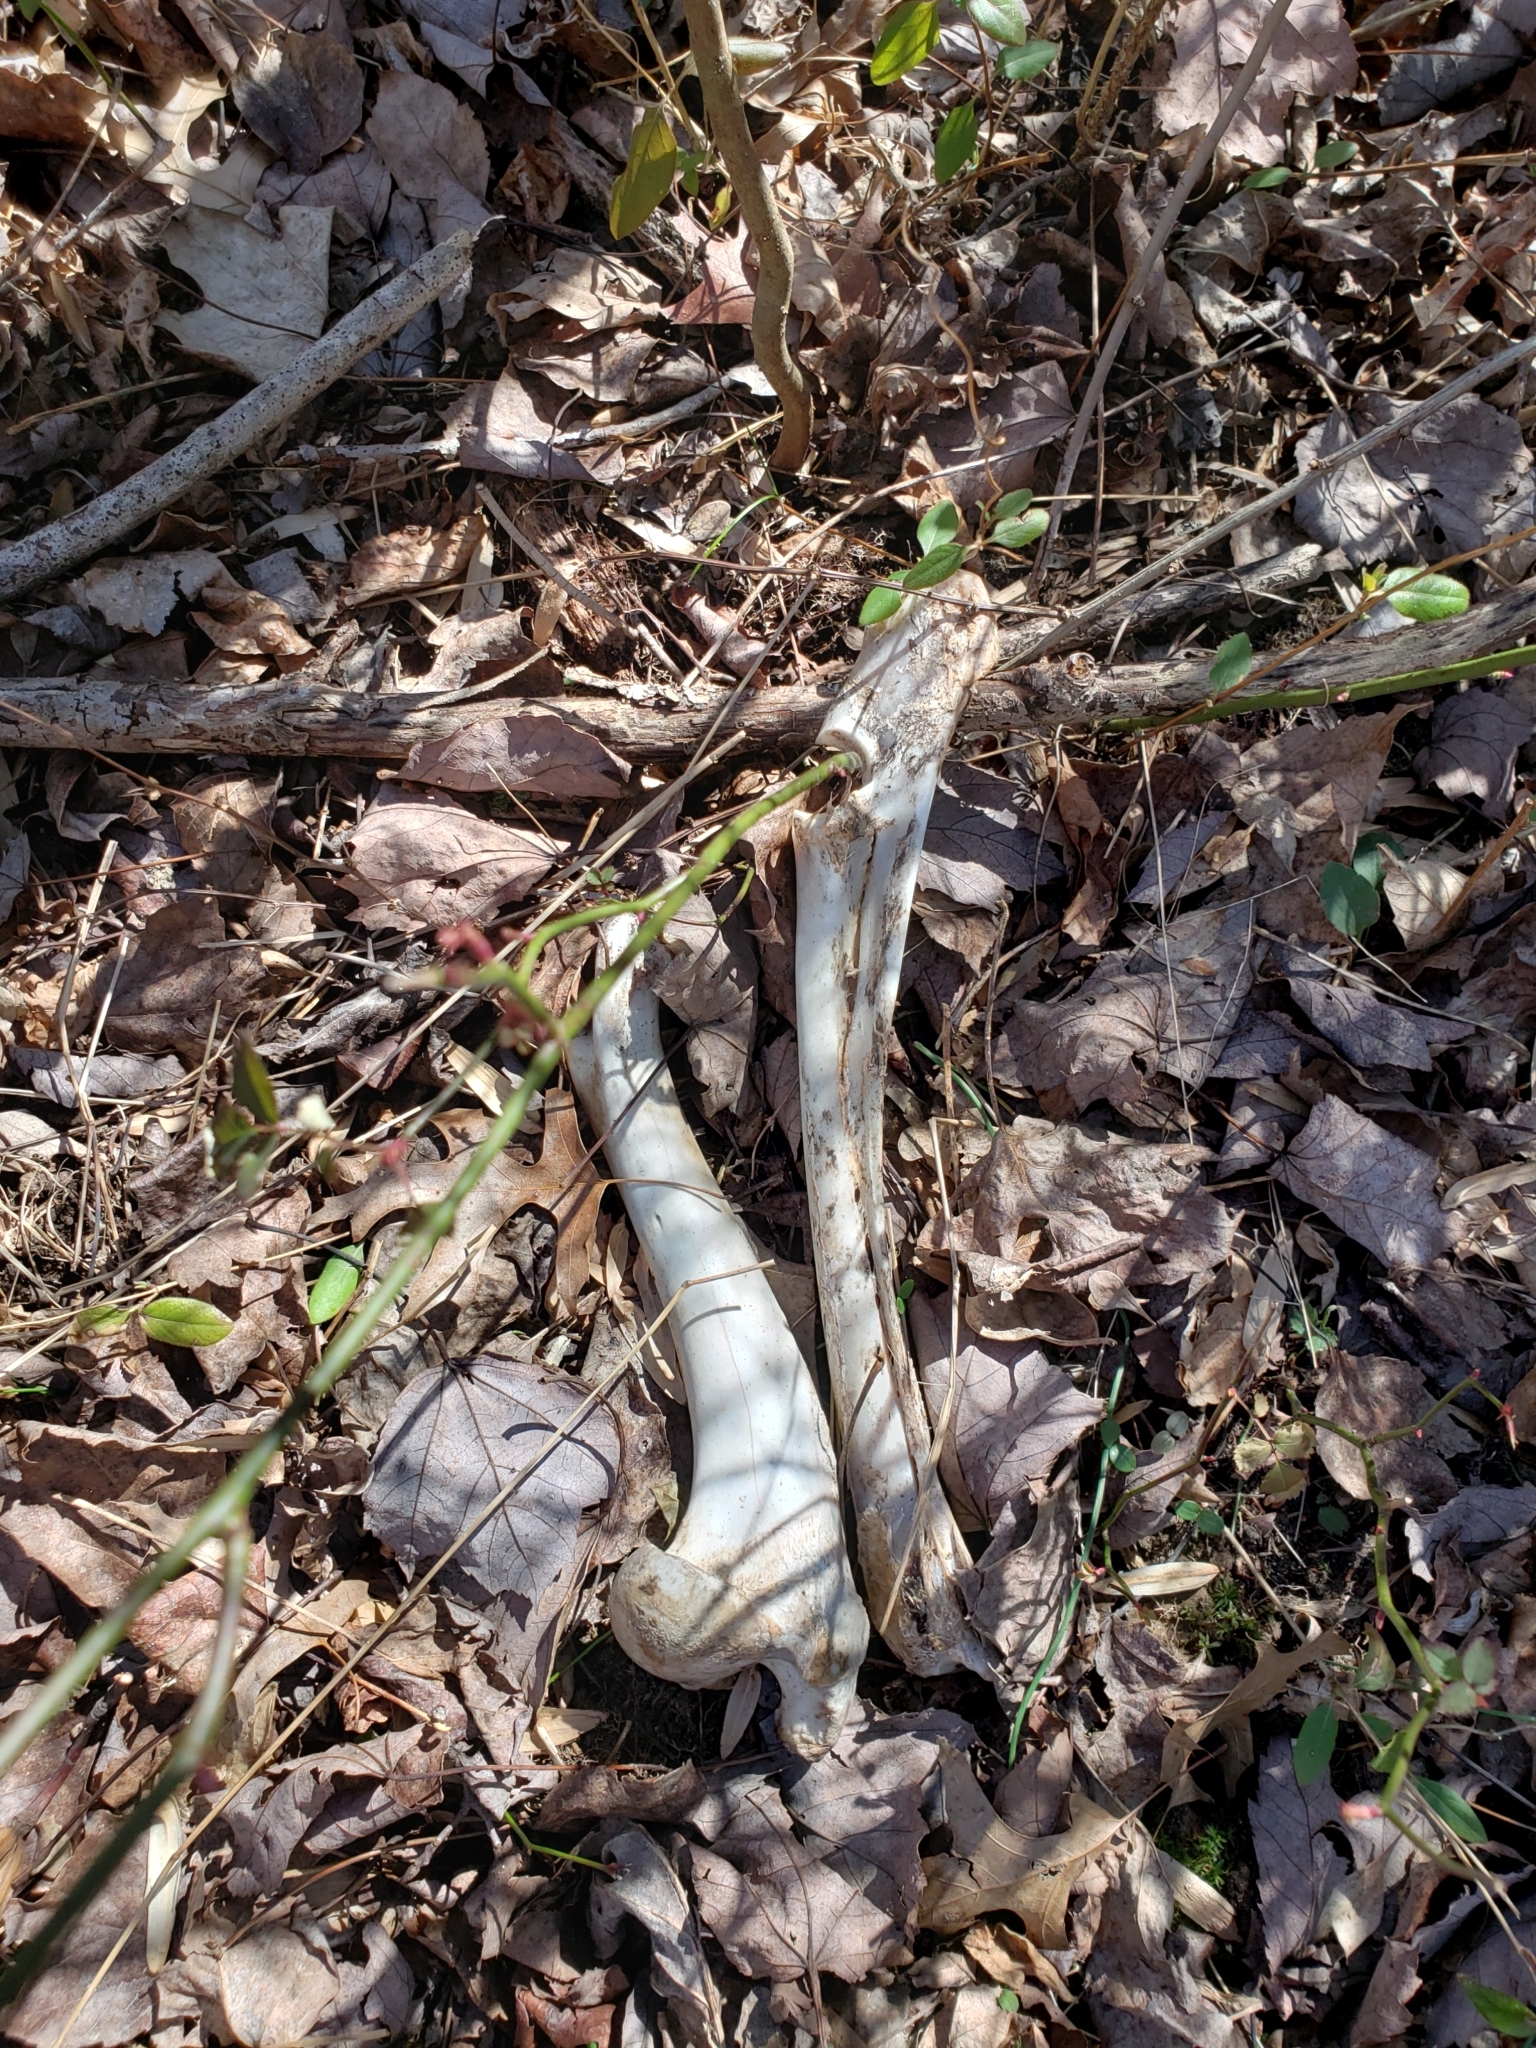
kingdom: Animalia
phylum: Chordata
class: Mammalia
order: Artiodactyla
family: Cervidae
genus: Odocoileus
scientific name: Odocoileus virginianus
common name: White-tailed deer
